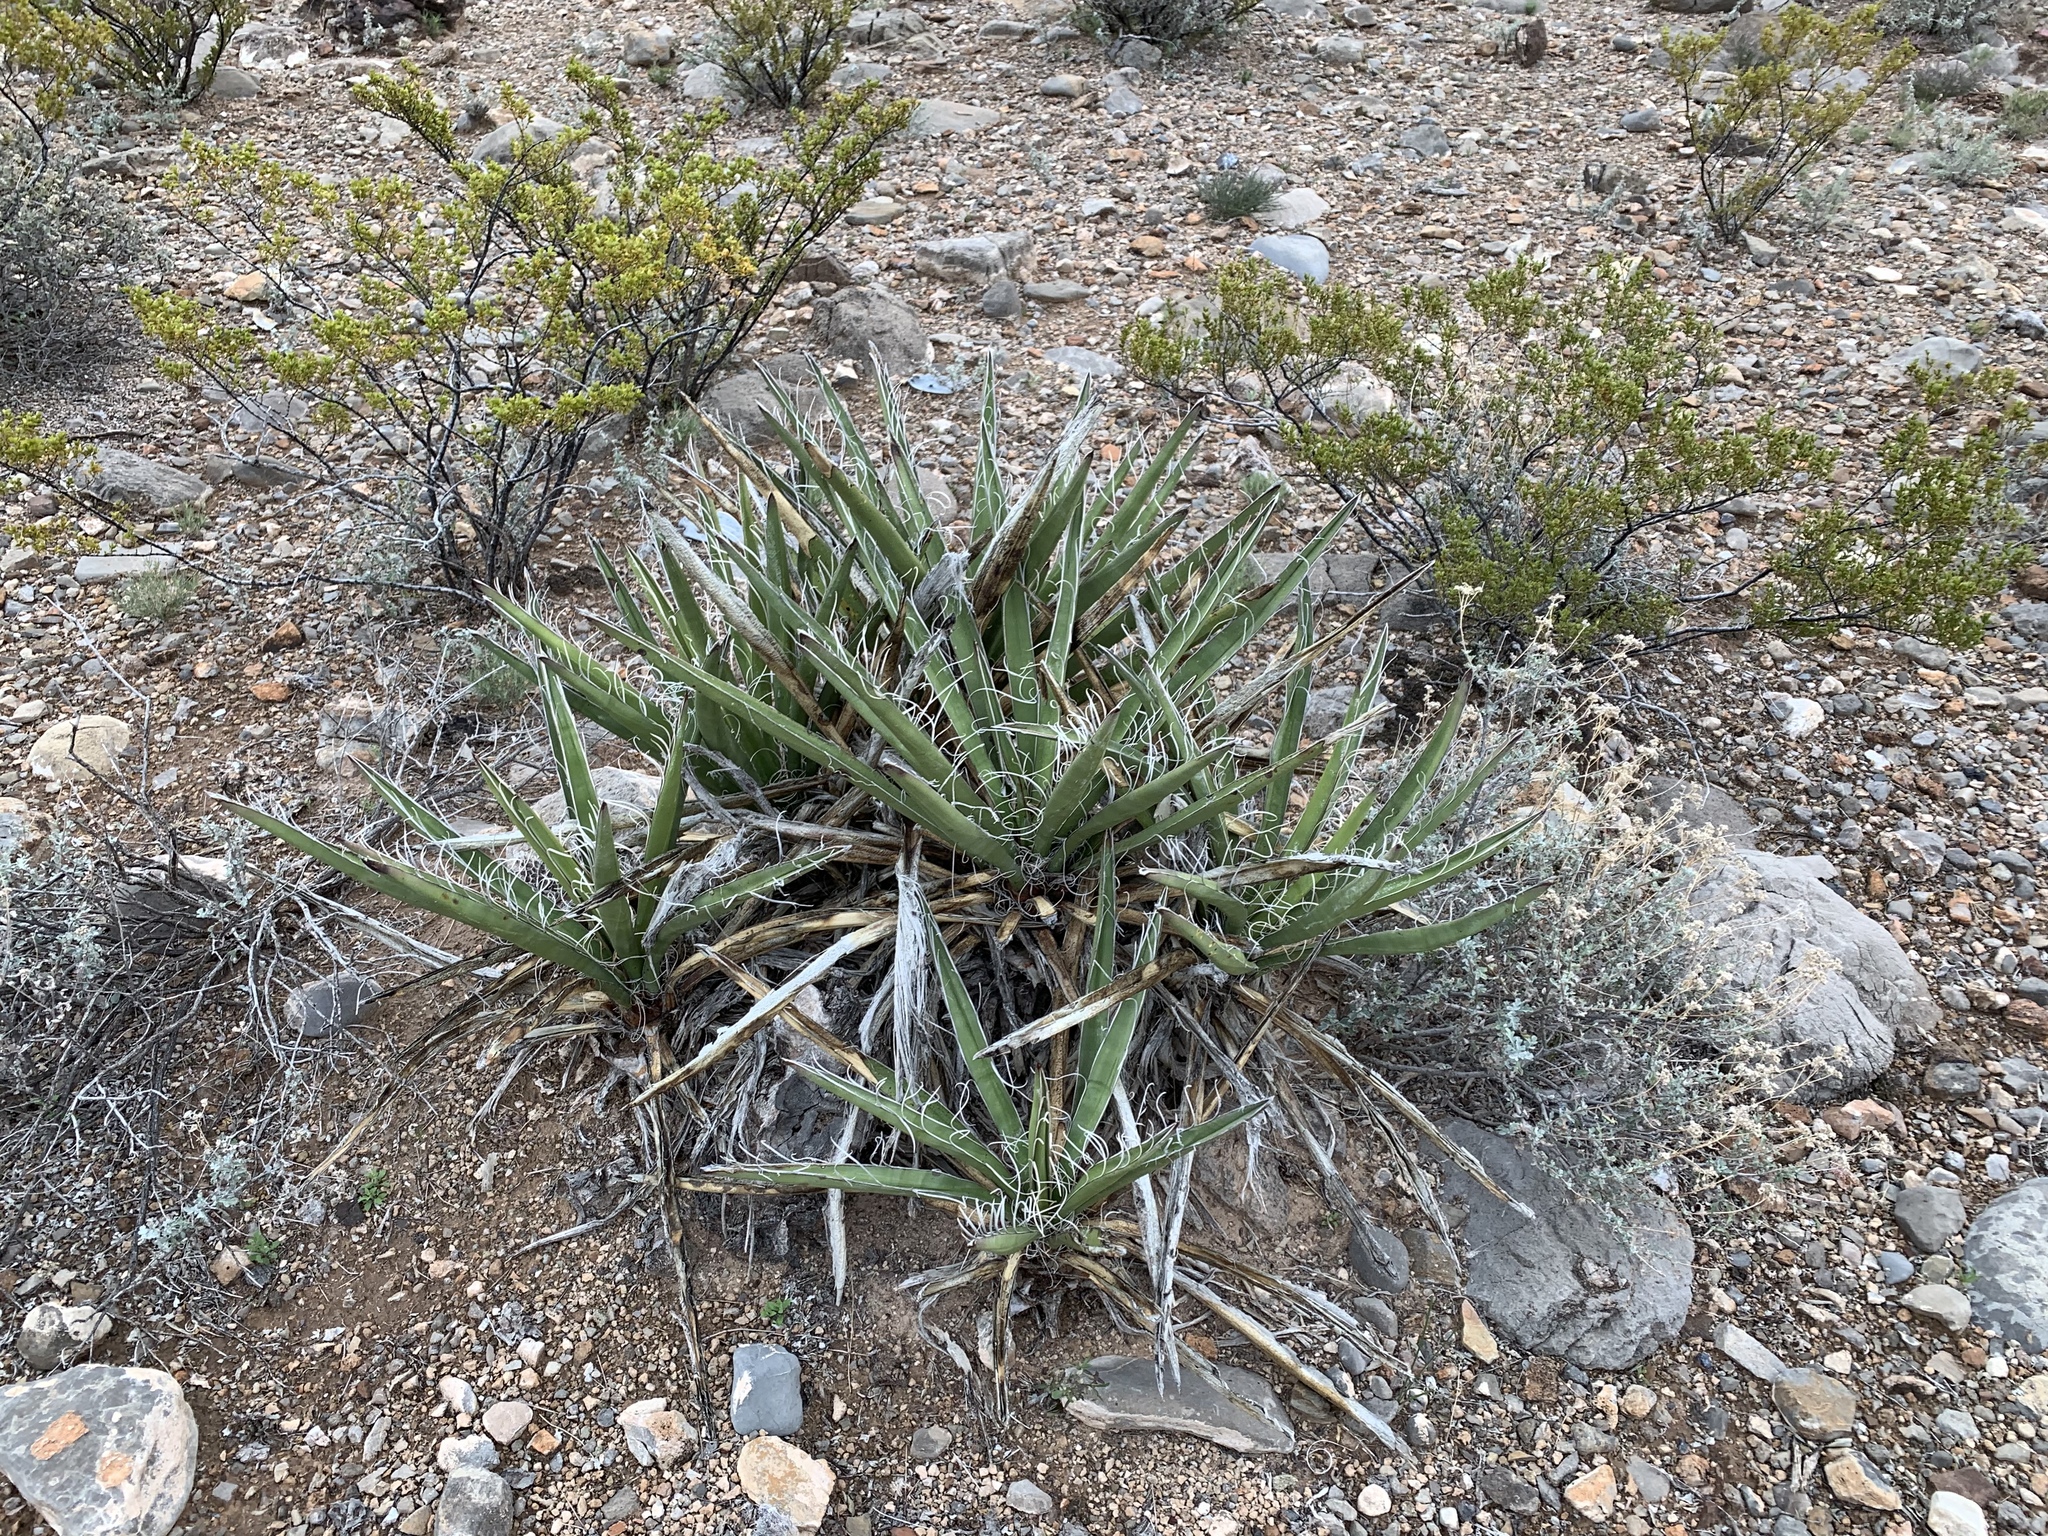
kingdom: Plantae
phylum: Tracheophyta
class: Liliopsida
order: Asparagales
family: Asparagaceae
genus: Yucca
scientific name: Yucca baccata
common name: Banana yucca
